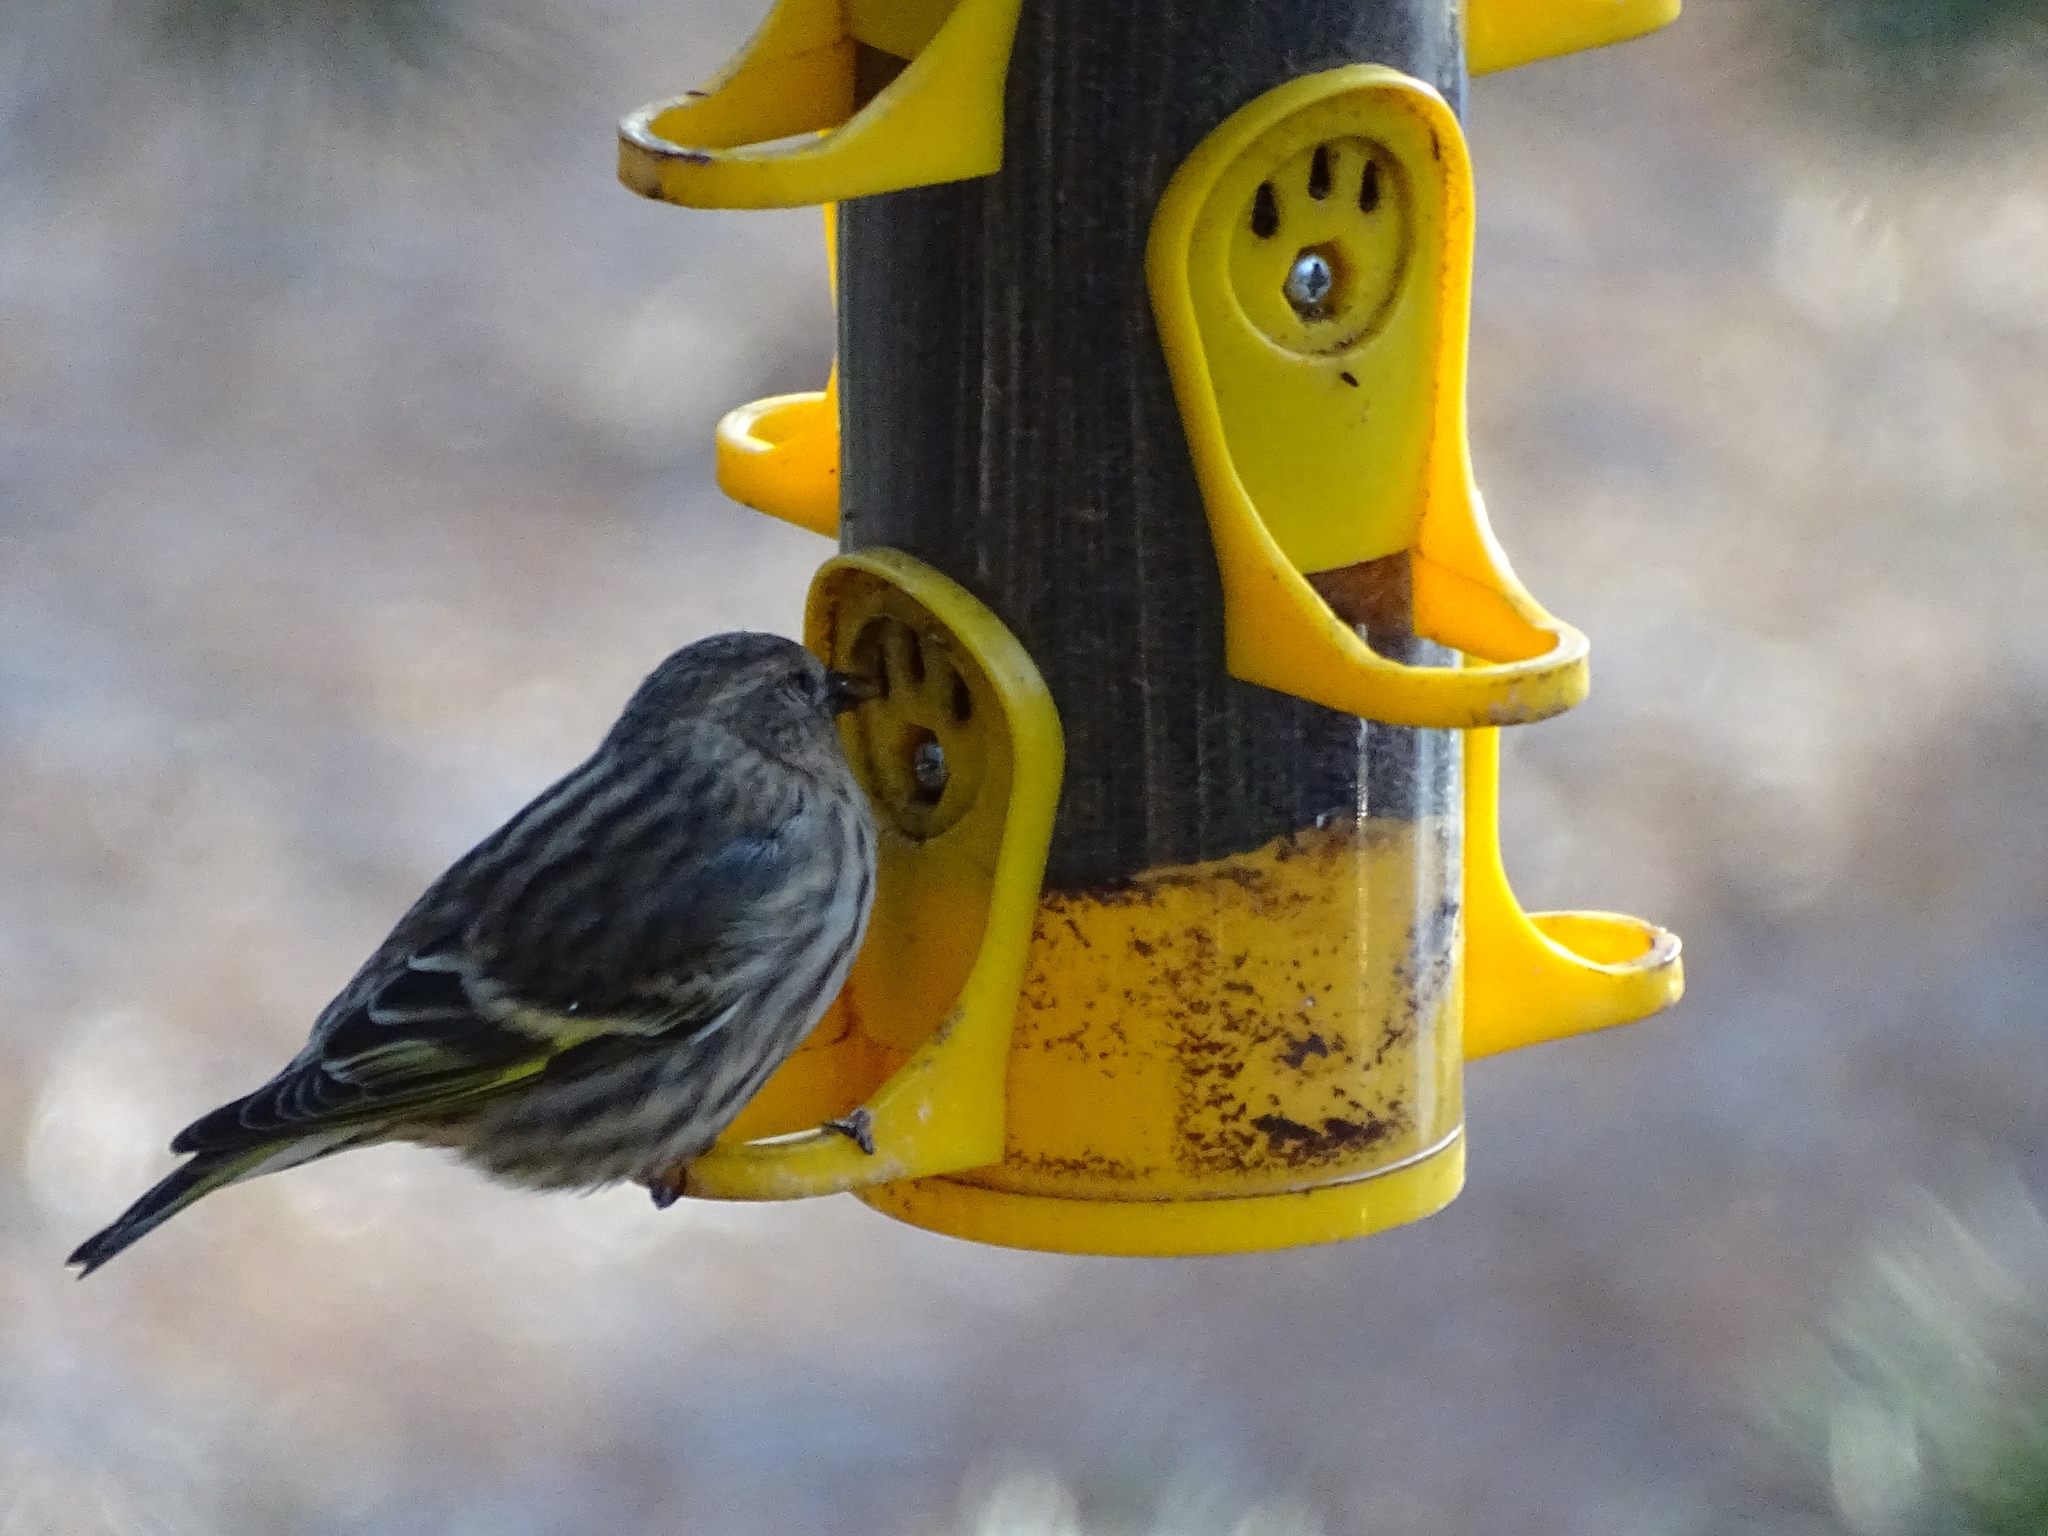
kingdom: Animalia
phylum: Chordata
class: Aves
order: Passeriformes
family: Fringillidae
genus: Spinus
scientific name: Spinus pinus
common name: Pine siskin
